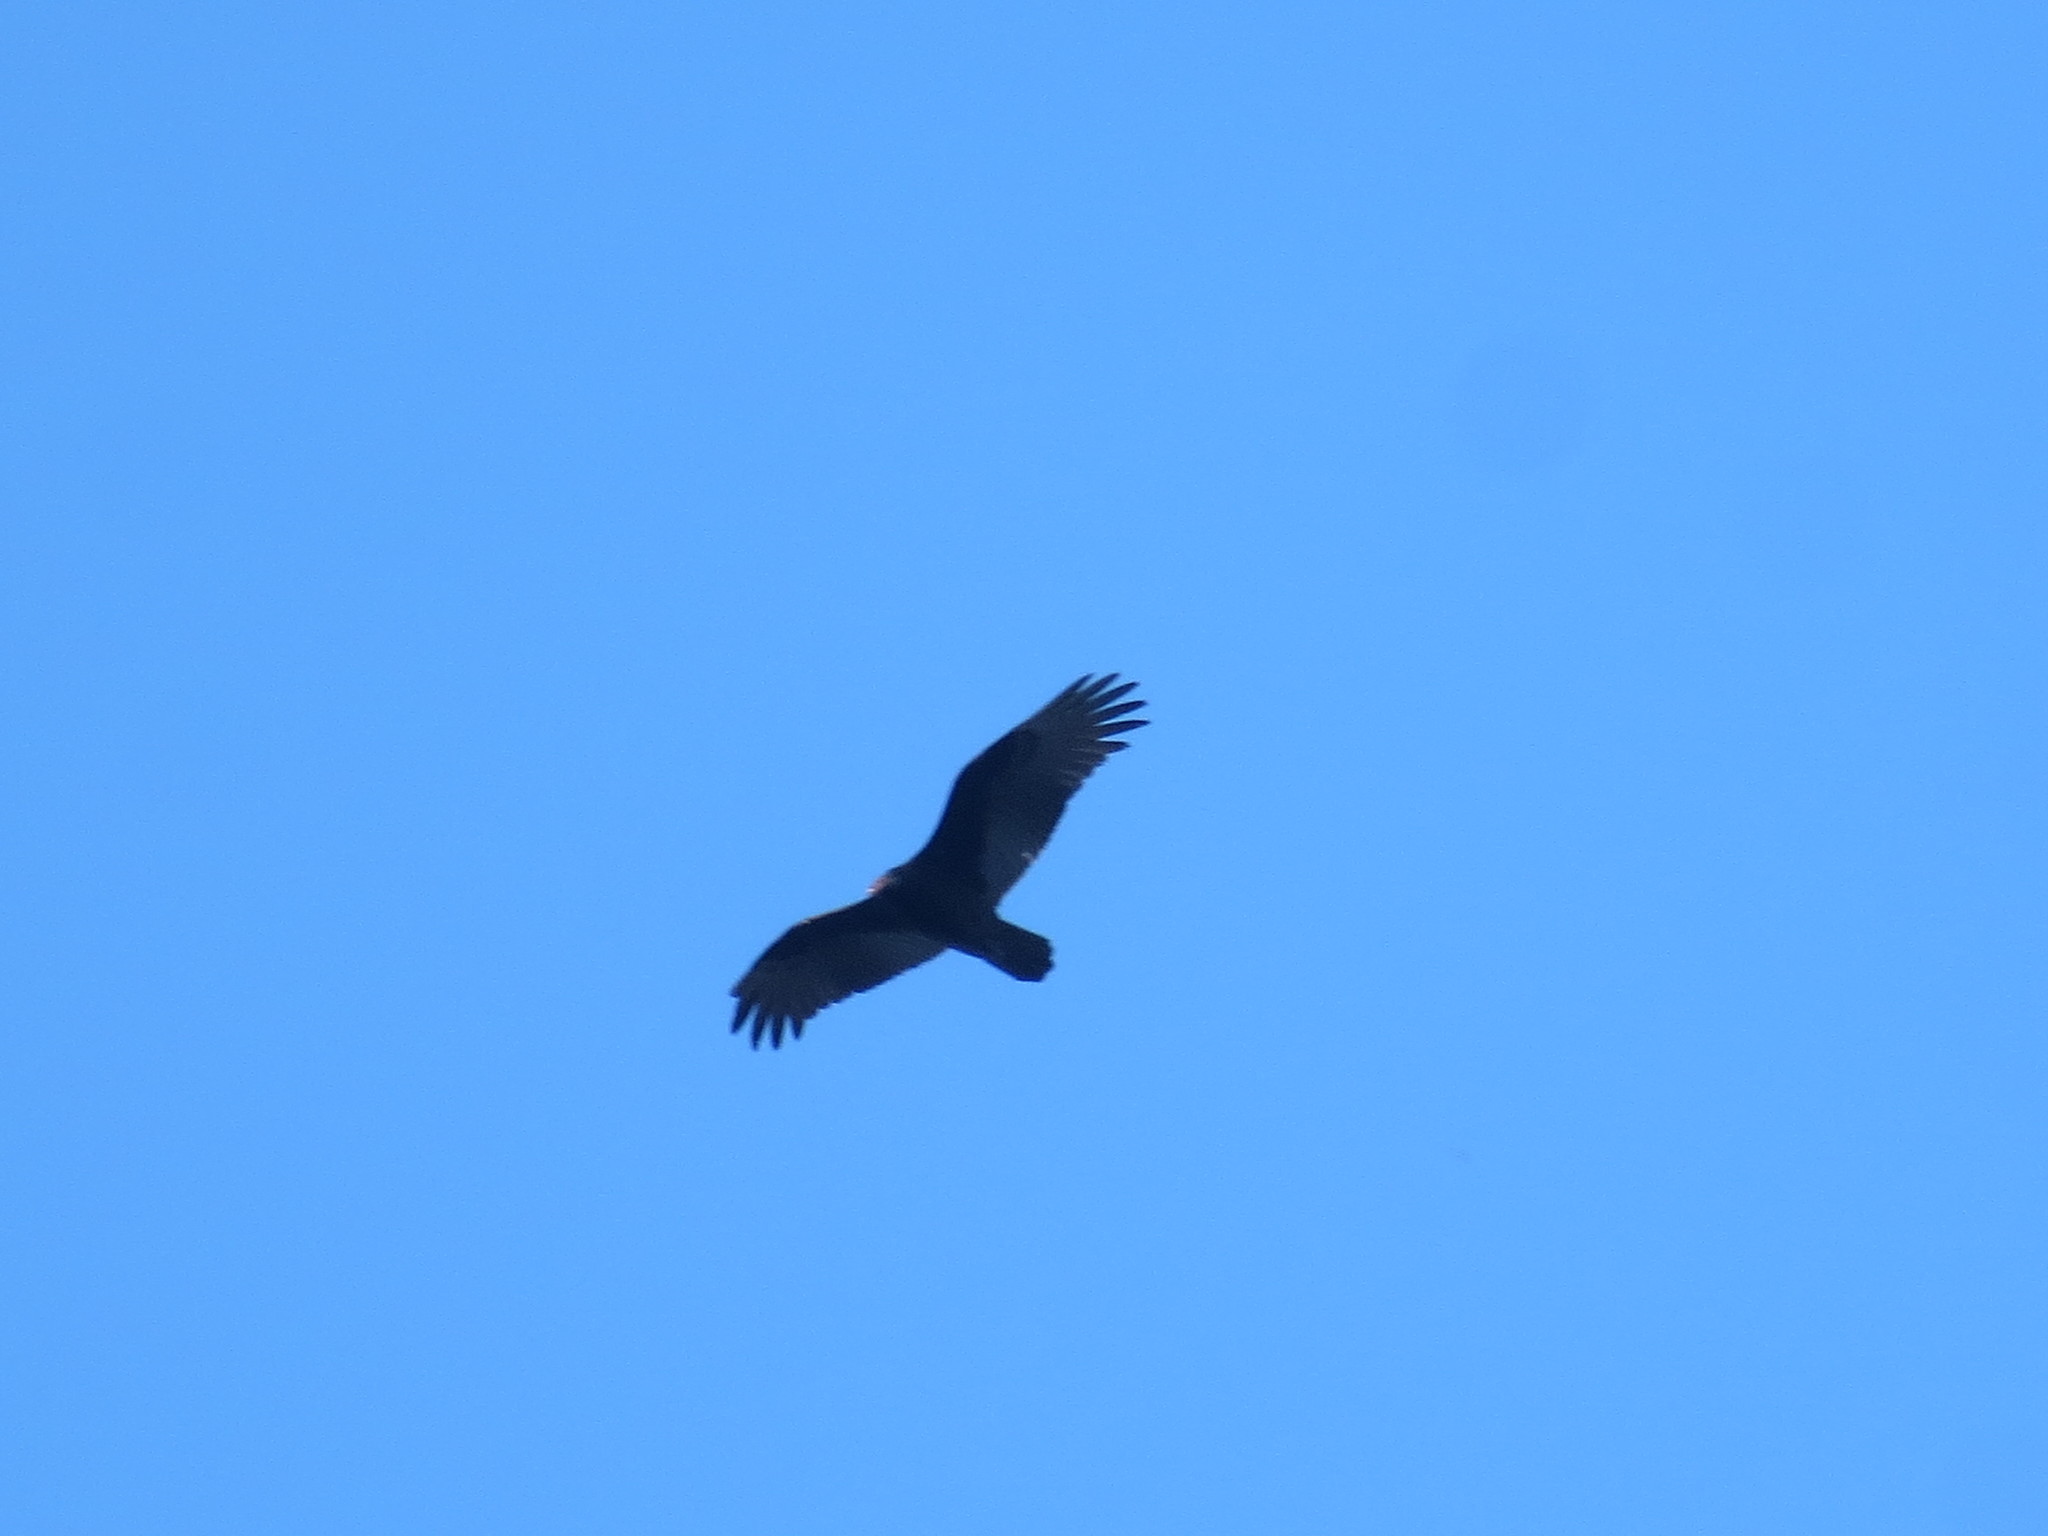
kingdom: Animalia
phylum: Chordata
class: Aves
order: Accipitriformes
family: Cathartidae
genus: Cathartes
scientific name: Cathartes aura
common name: Turkey vulture
